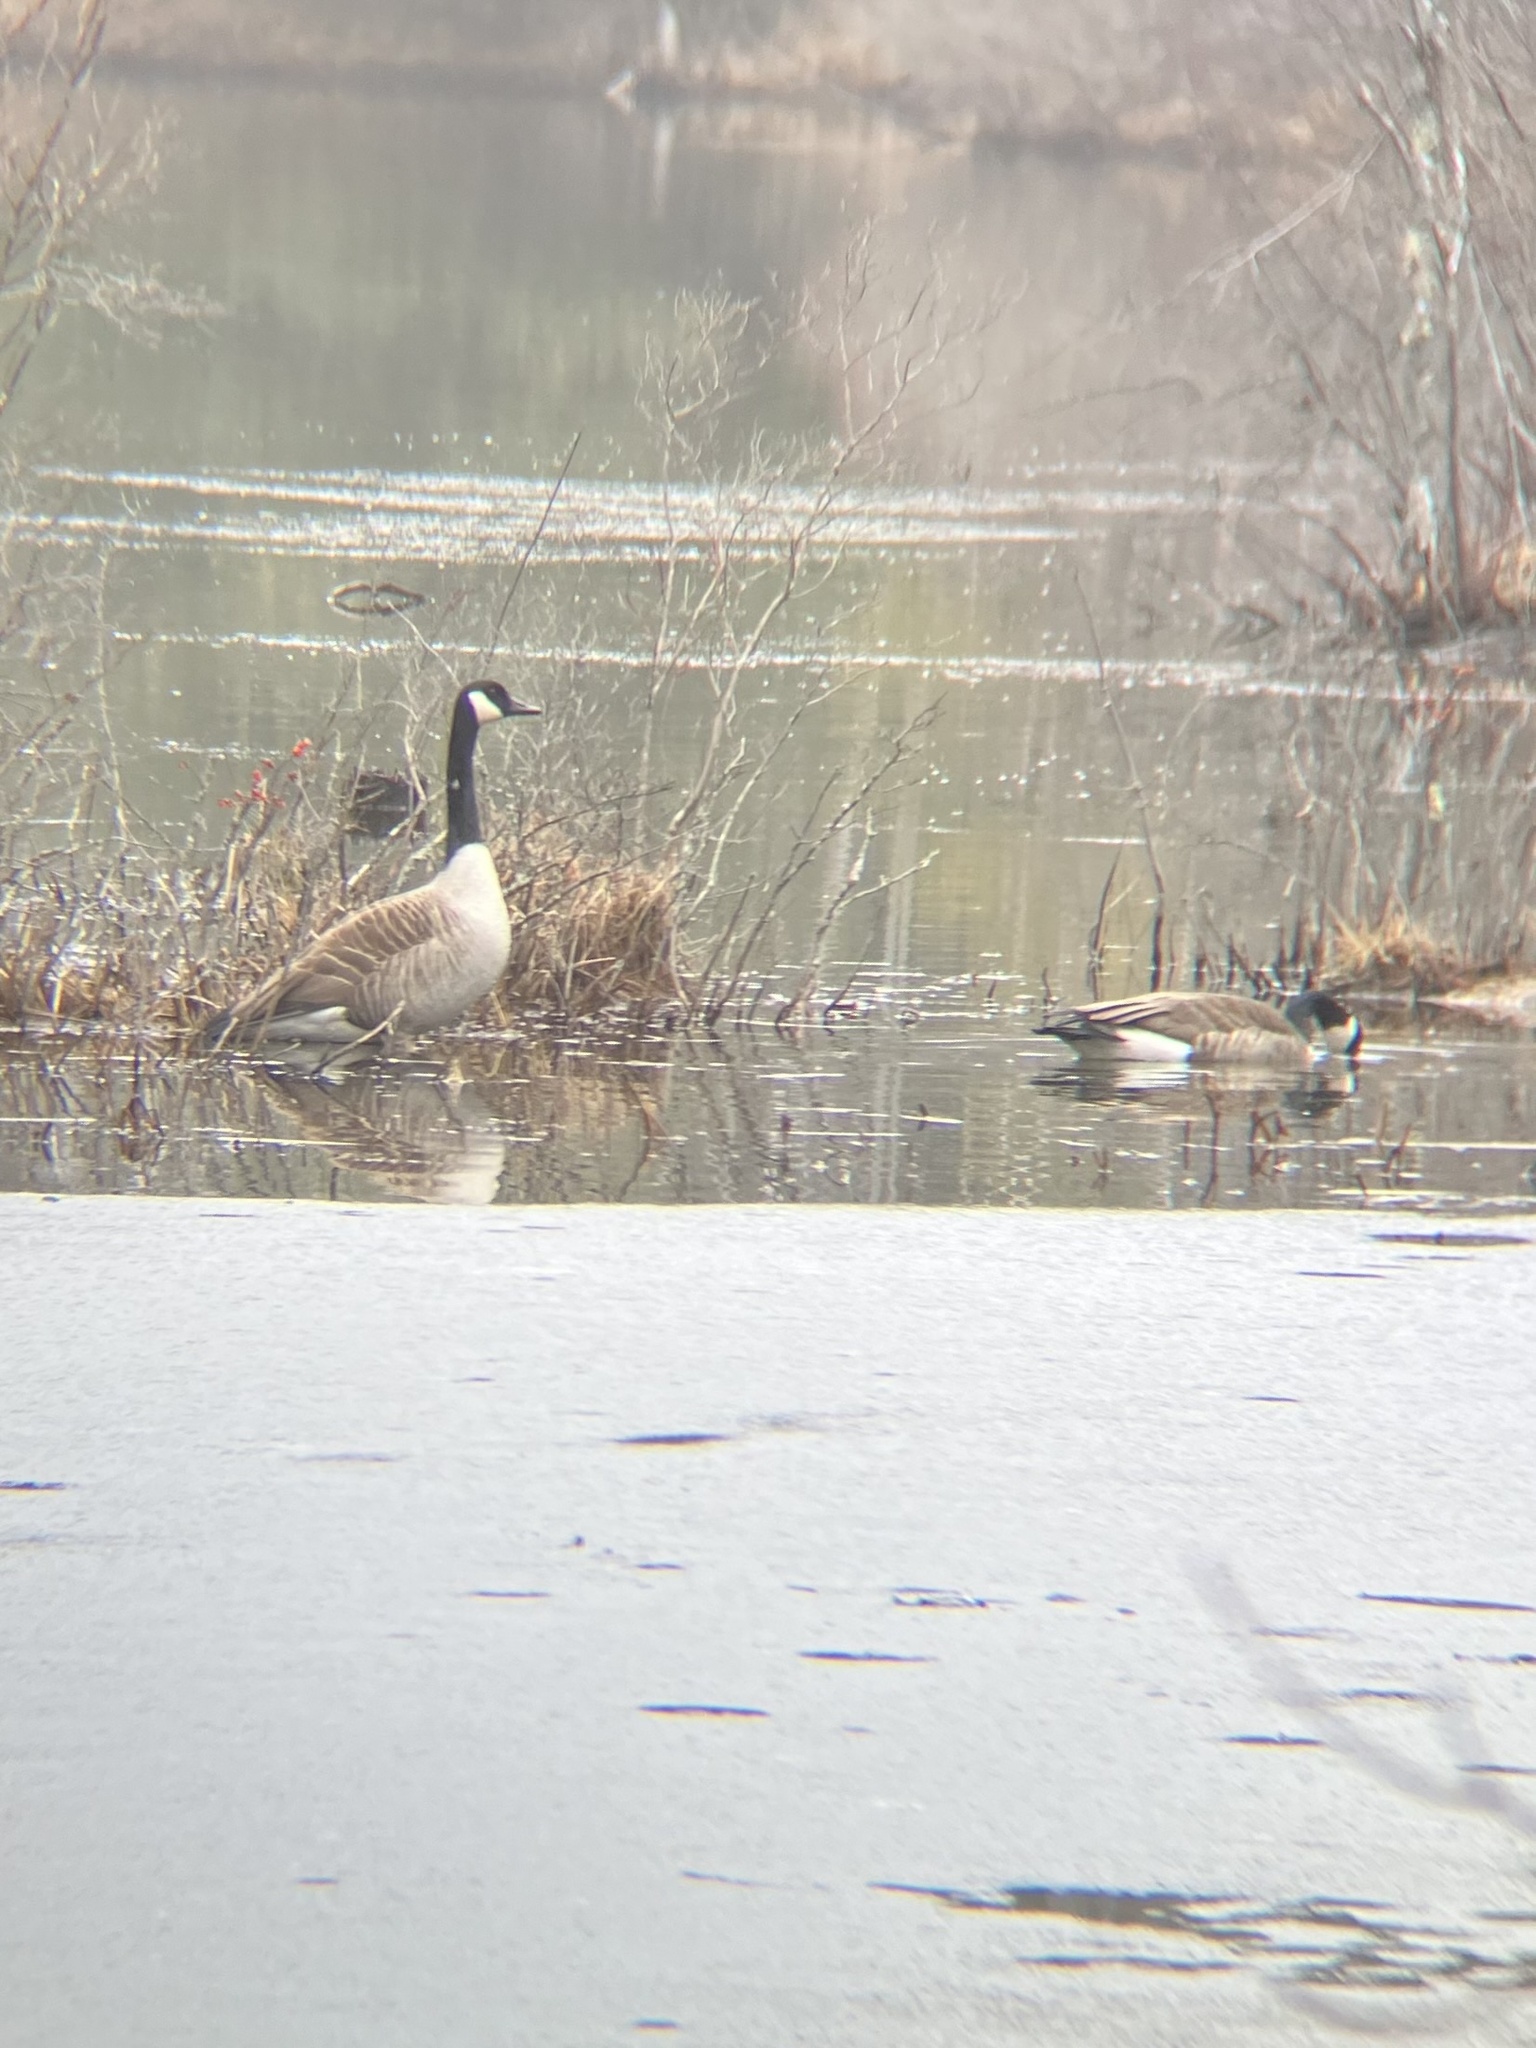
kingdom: Animalia
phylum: Chordata
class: Aves
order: Anseriformes
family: Anatidae
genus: Branta
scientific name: Branta canadensis
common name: Canada goose
